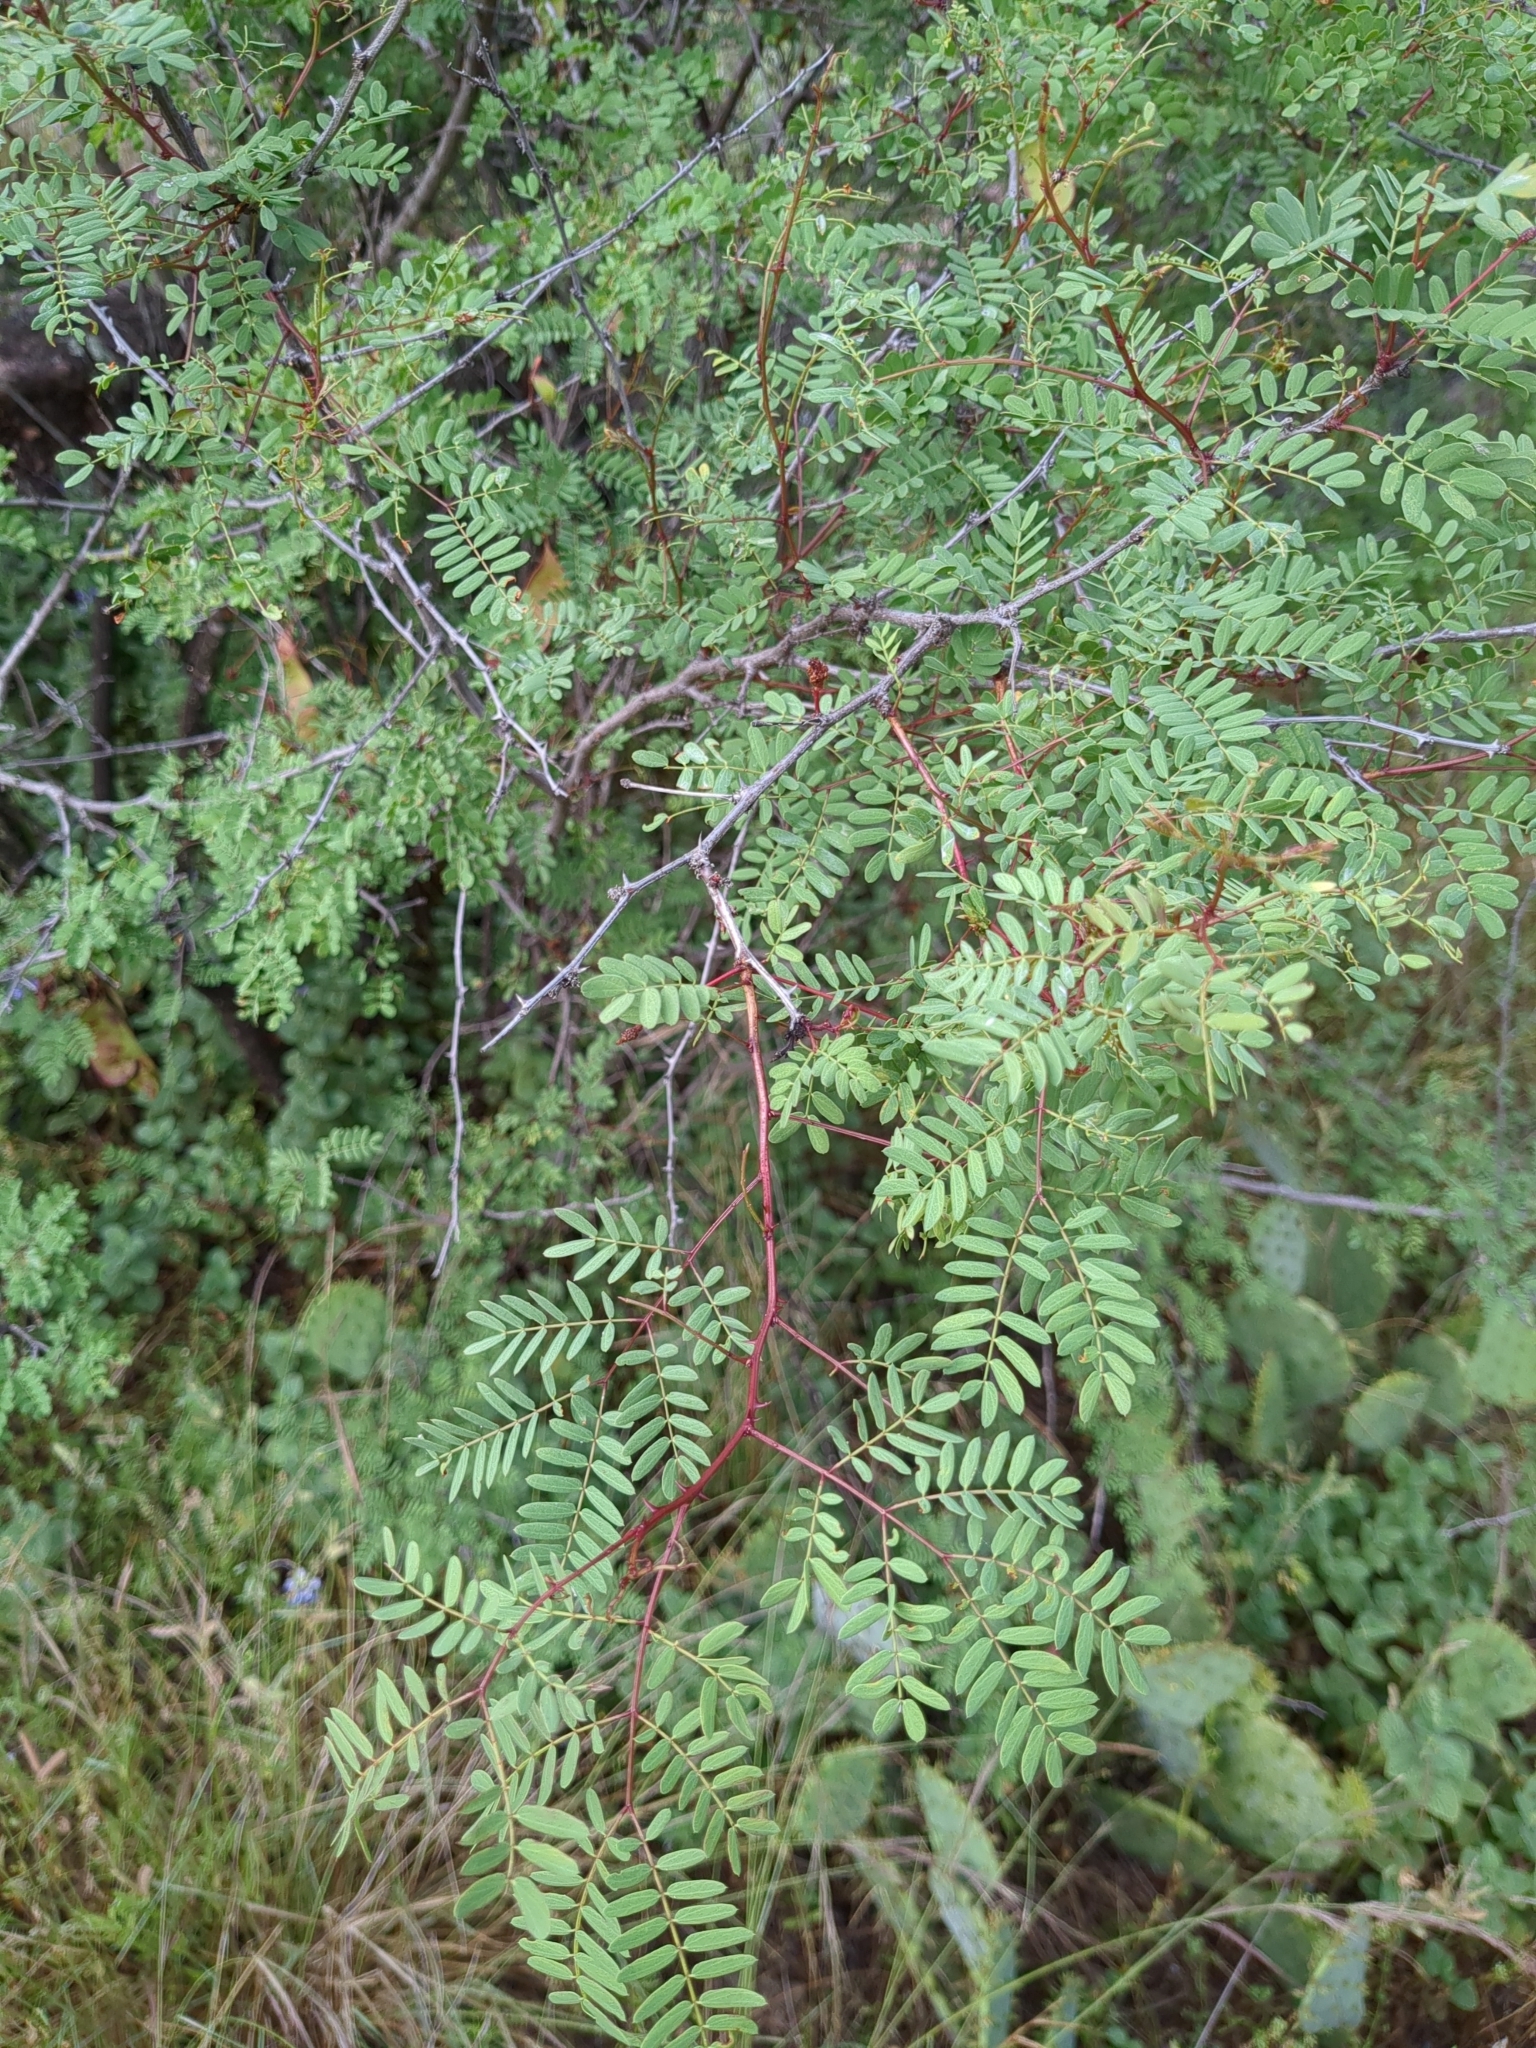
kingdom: Plantae
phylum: Tracheophyta
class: Magnoliopsida
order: Fabales
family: Fabaceae
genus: Senegalia
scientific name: Senegalia roemeriana
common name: Roemer's acacia
